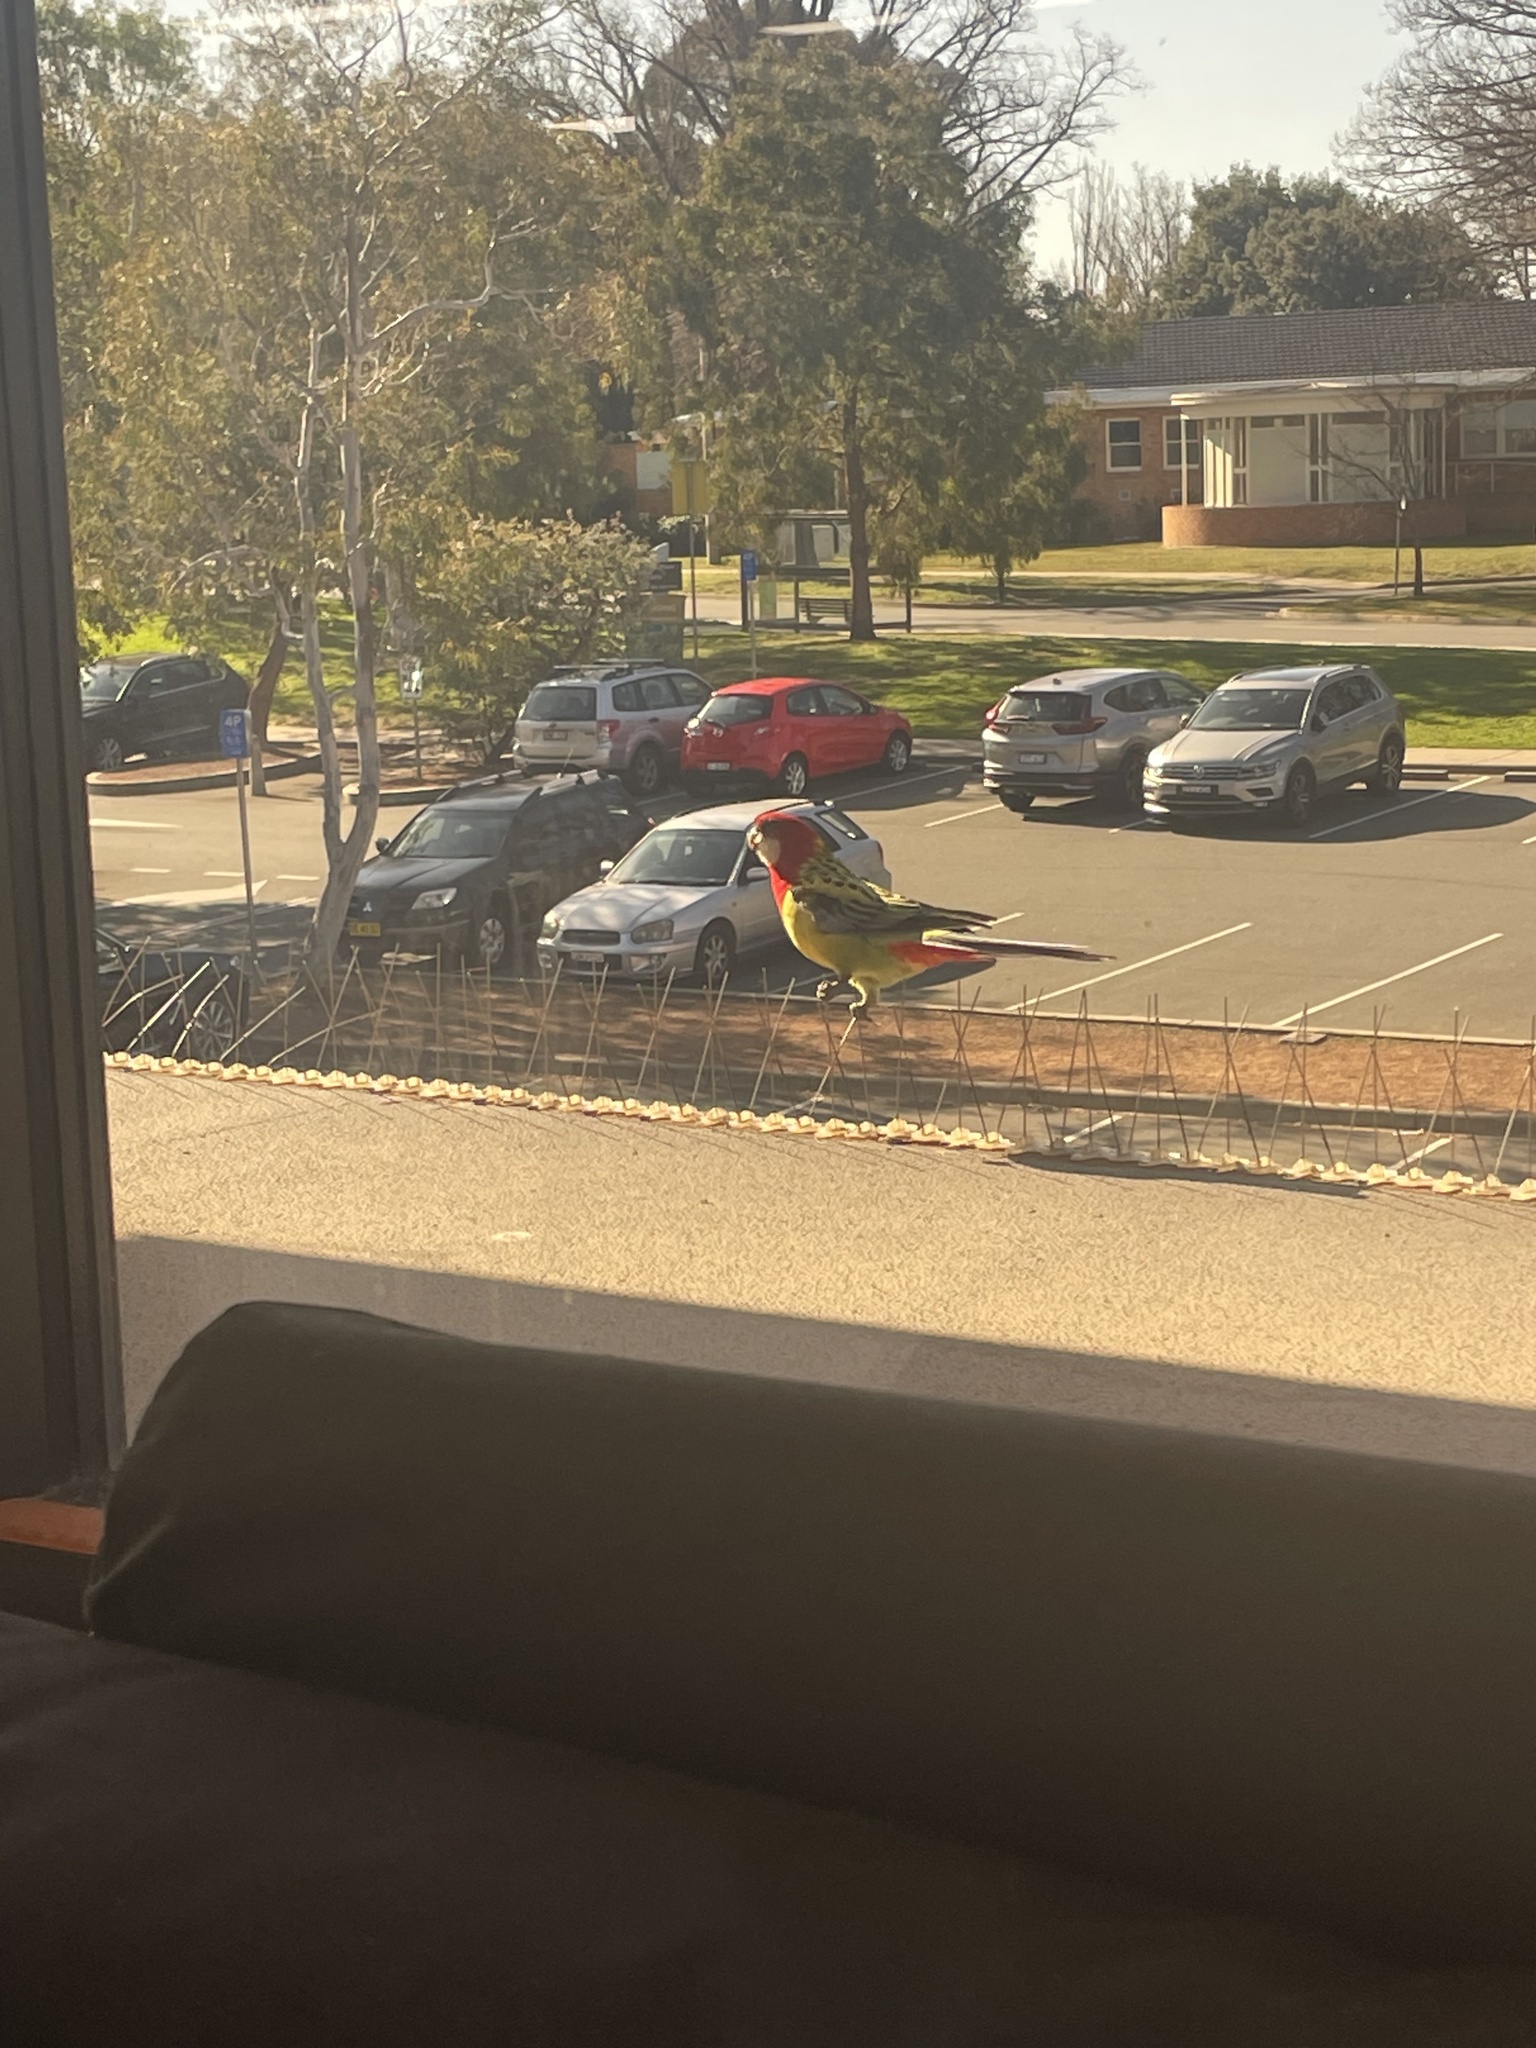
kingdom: Animalia
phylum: Chordata
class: Aves
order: Psittaciformes
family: Psittacidae
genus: Platycercus
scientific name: Platycercus eximius
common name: Eastern rosella
